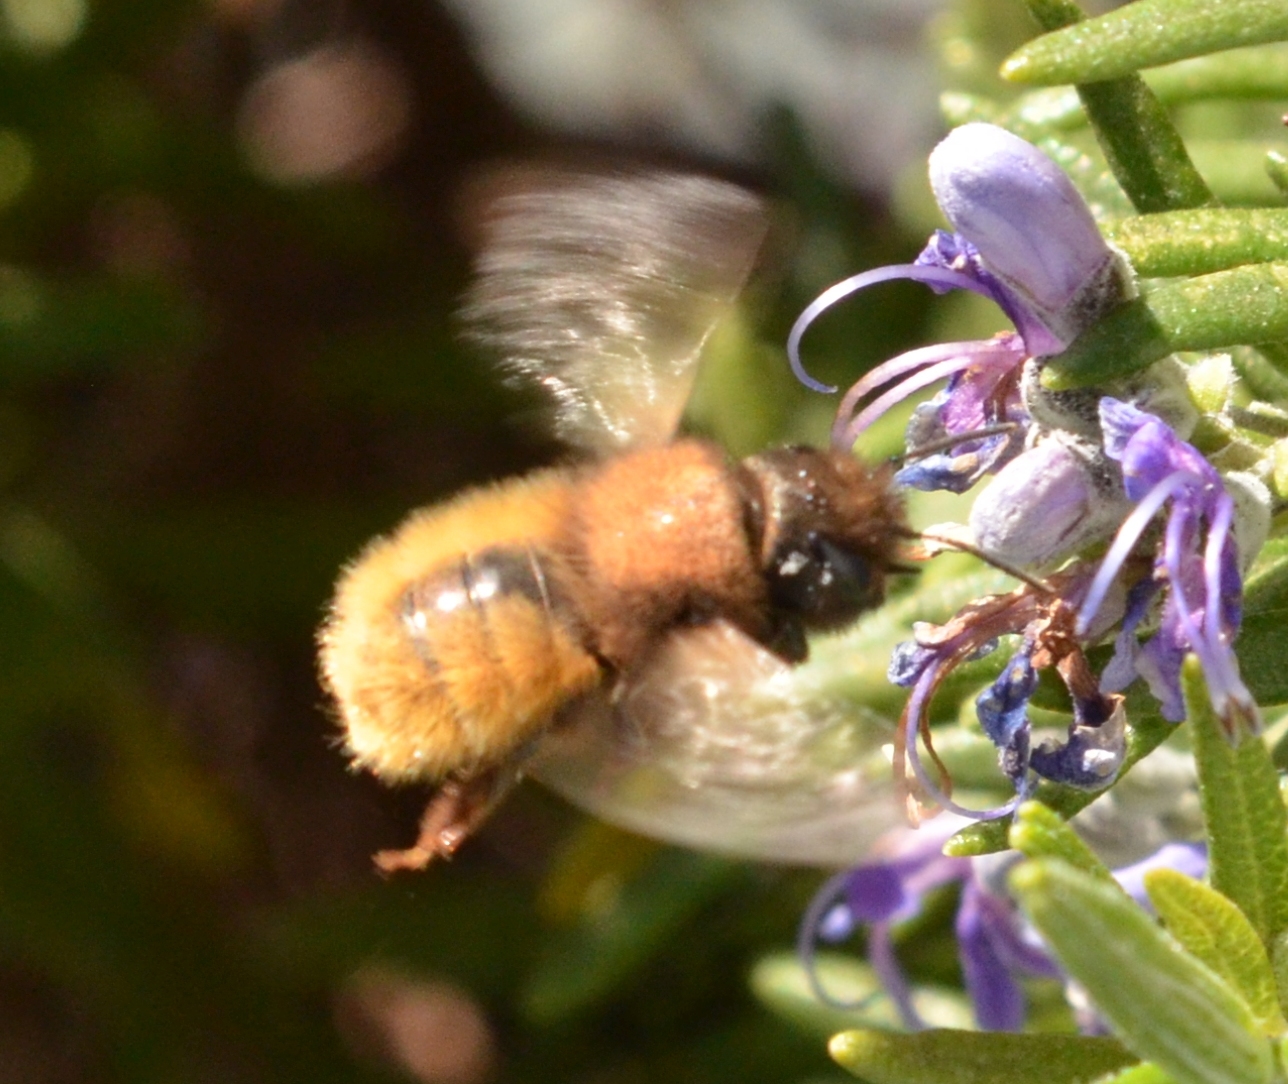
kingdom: Animalia
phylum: Arthropoda
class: Insecta
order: Hymenoptera
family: Megachilidae
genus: Osmia
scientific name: Osmia cornuta
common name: Mason bee
